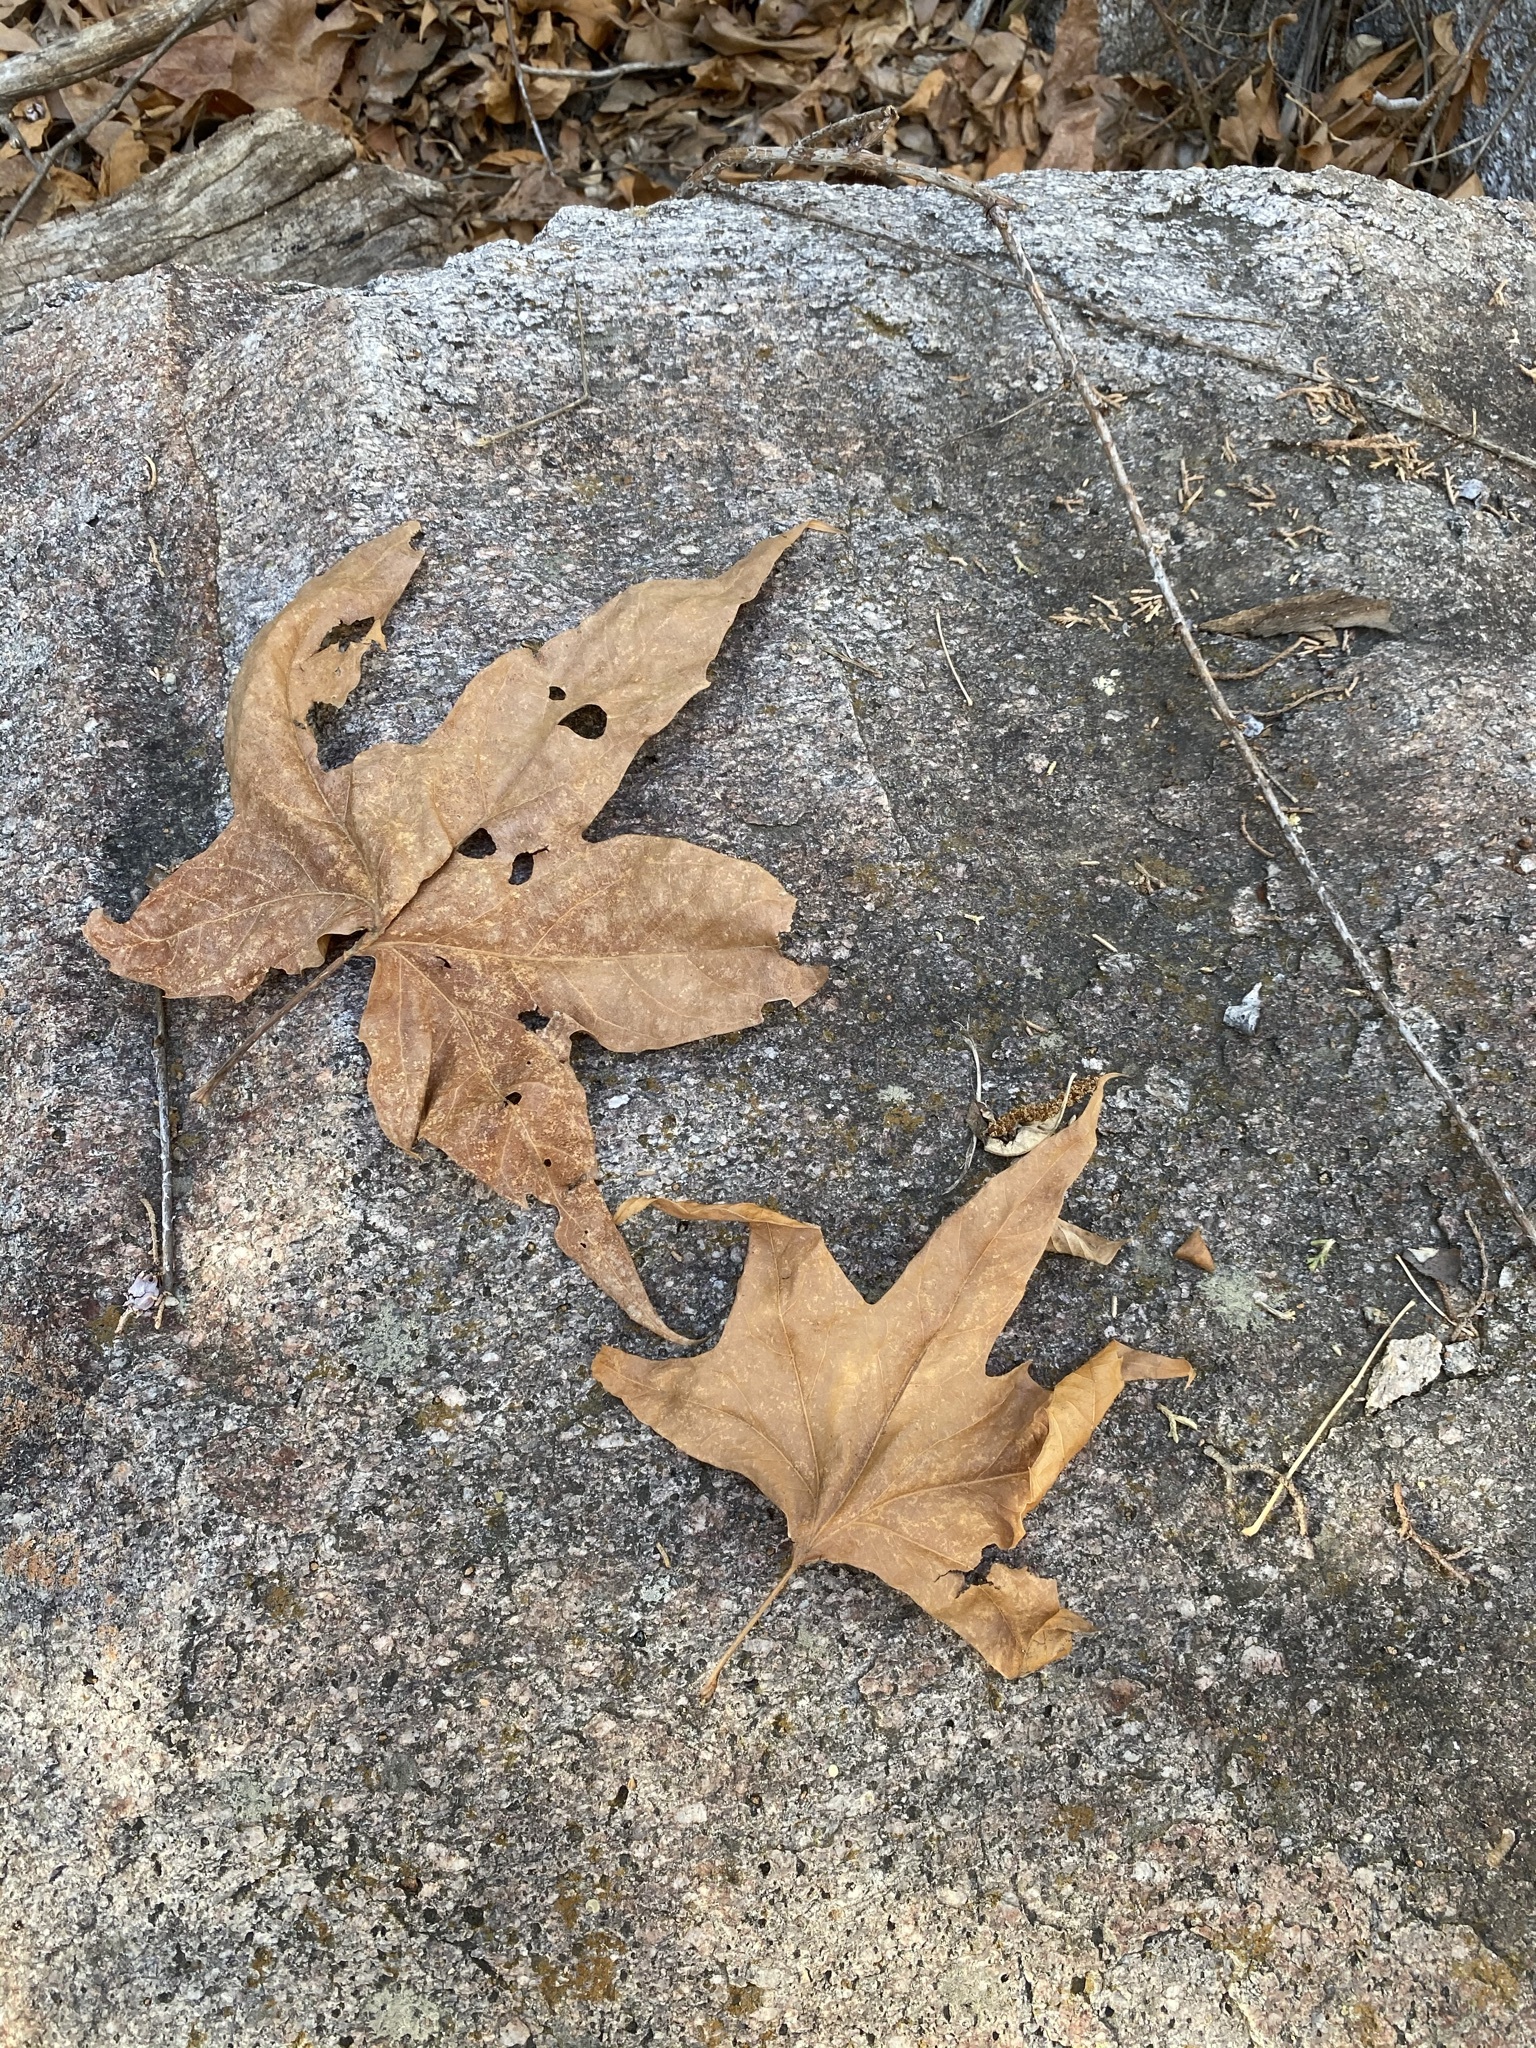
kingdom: Plantae
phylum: Tracheophyta
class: Magnoliopsida
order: Proteales
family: Platanaceae
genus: Platanus
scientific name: Platanus wrightii
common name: Arizona sycamore
